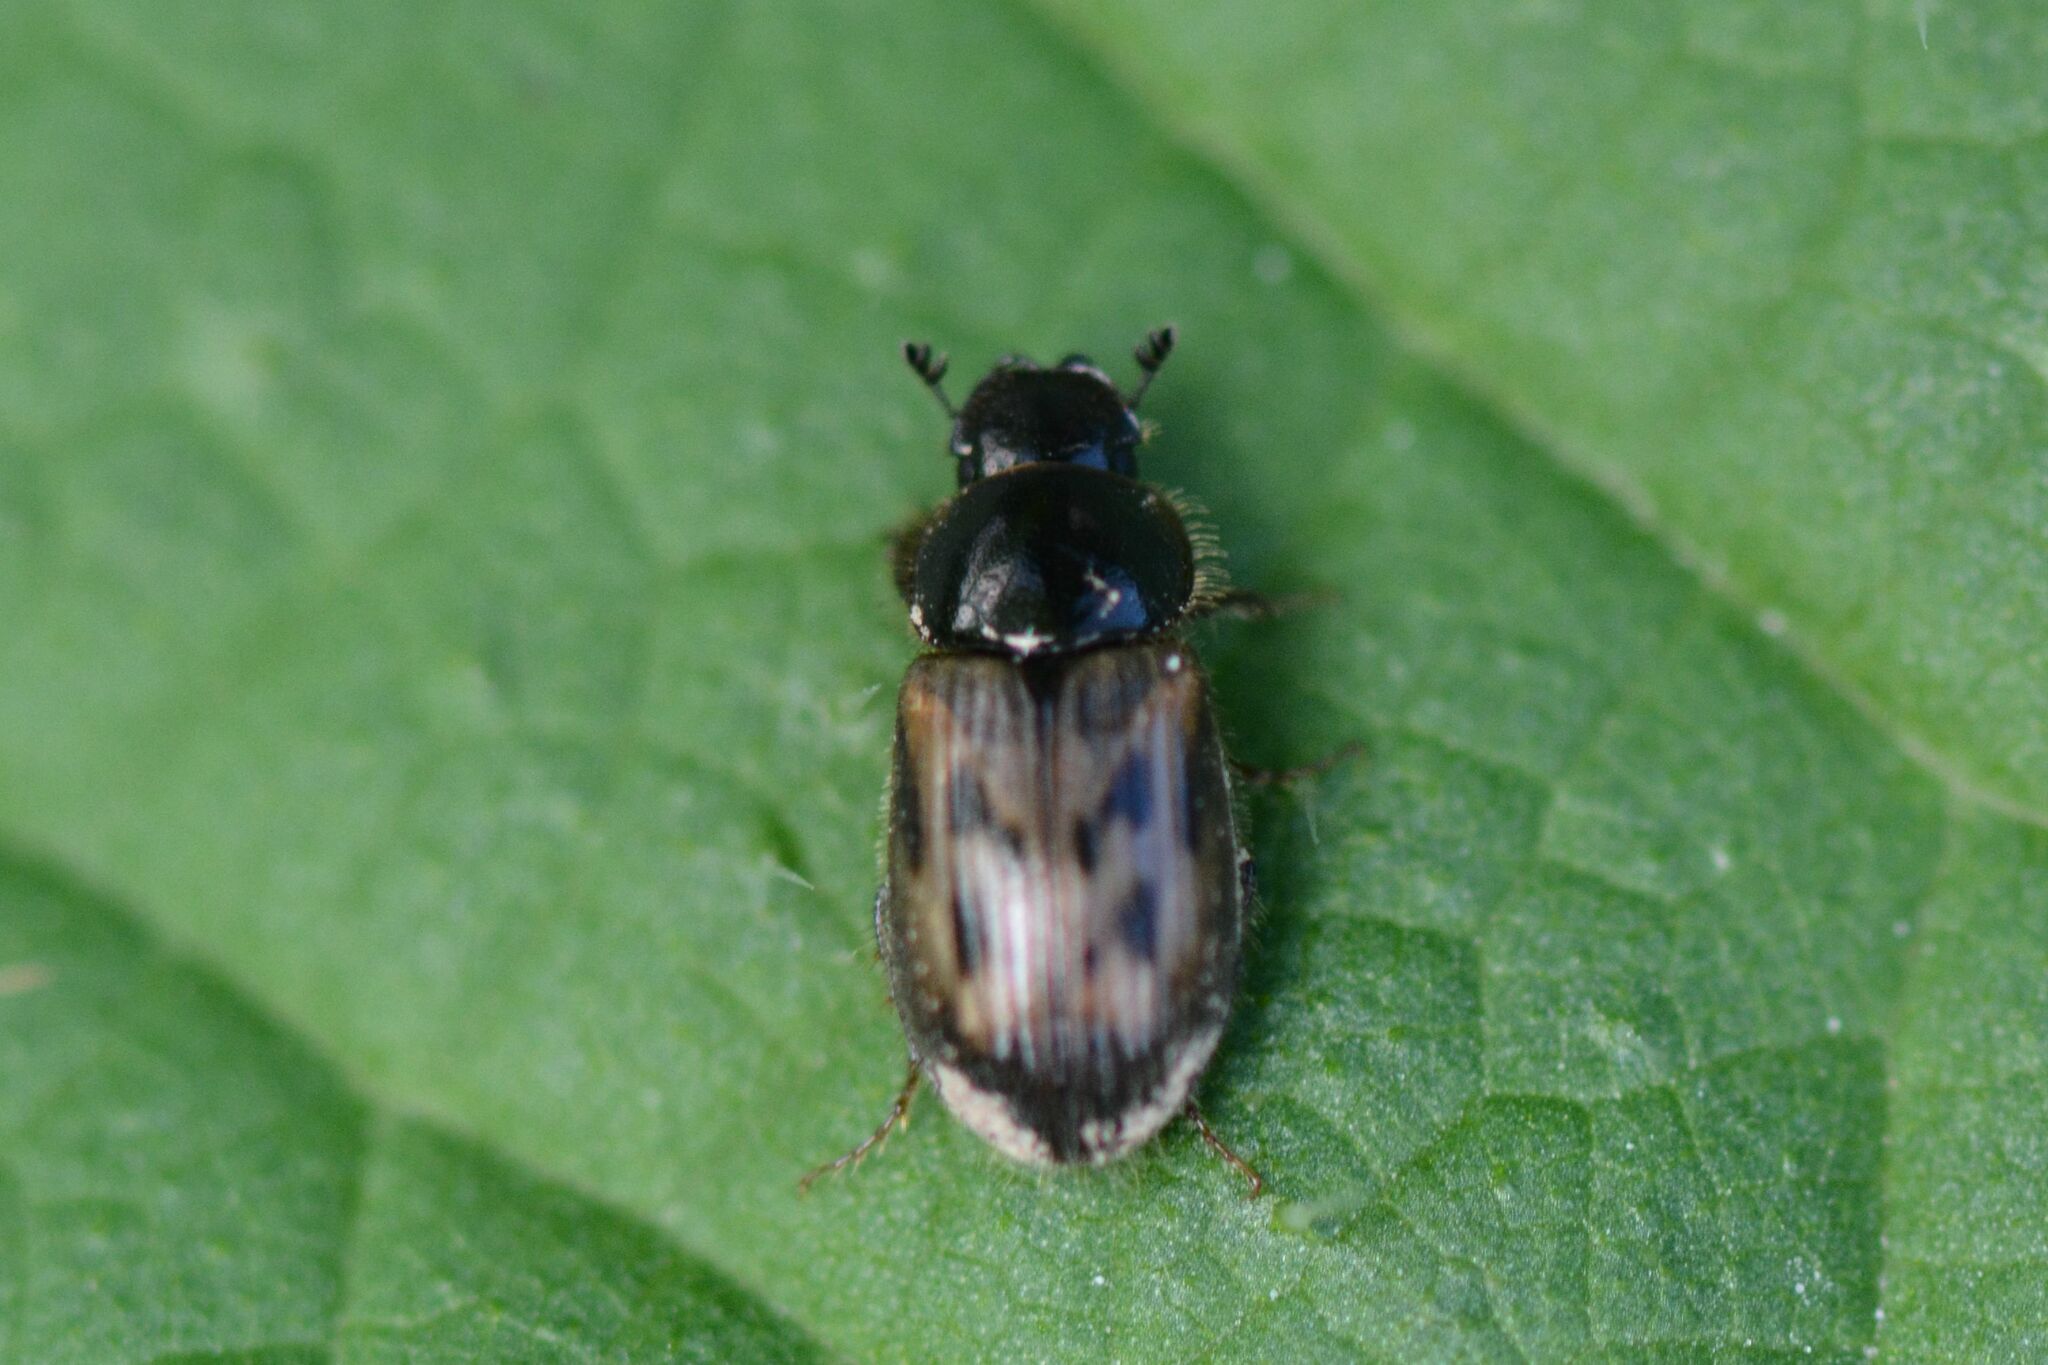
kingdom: Animalia
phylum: Arthropoda
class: Insecta
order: Coleoptera
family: Scarabaeidae
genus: Nimbus
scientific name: Nimbus contaminatus
